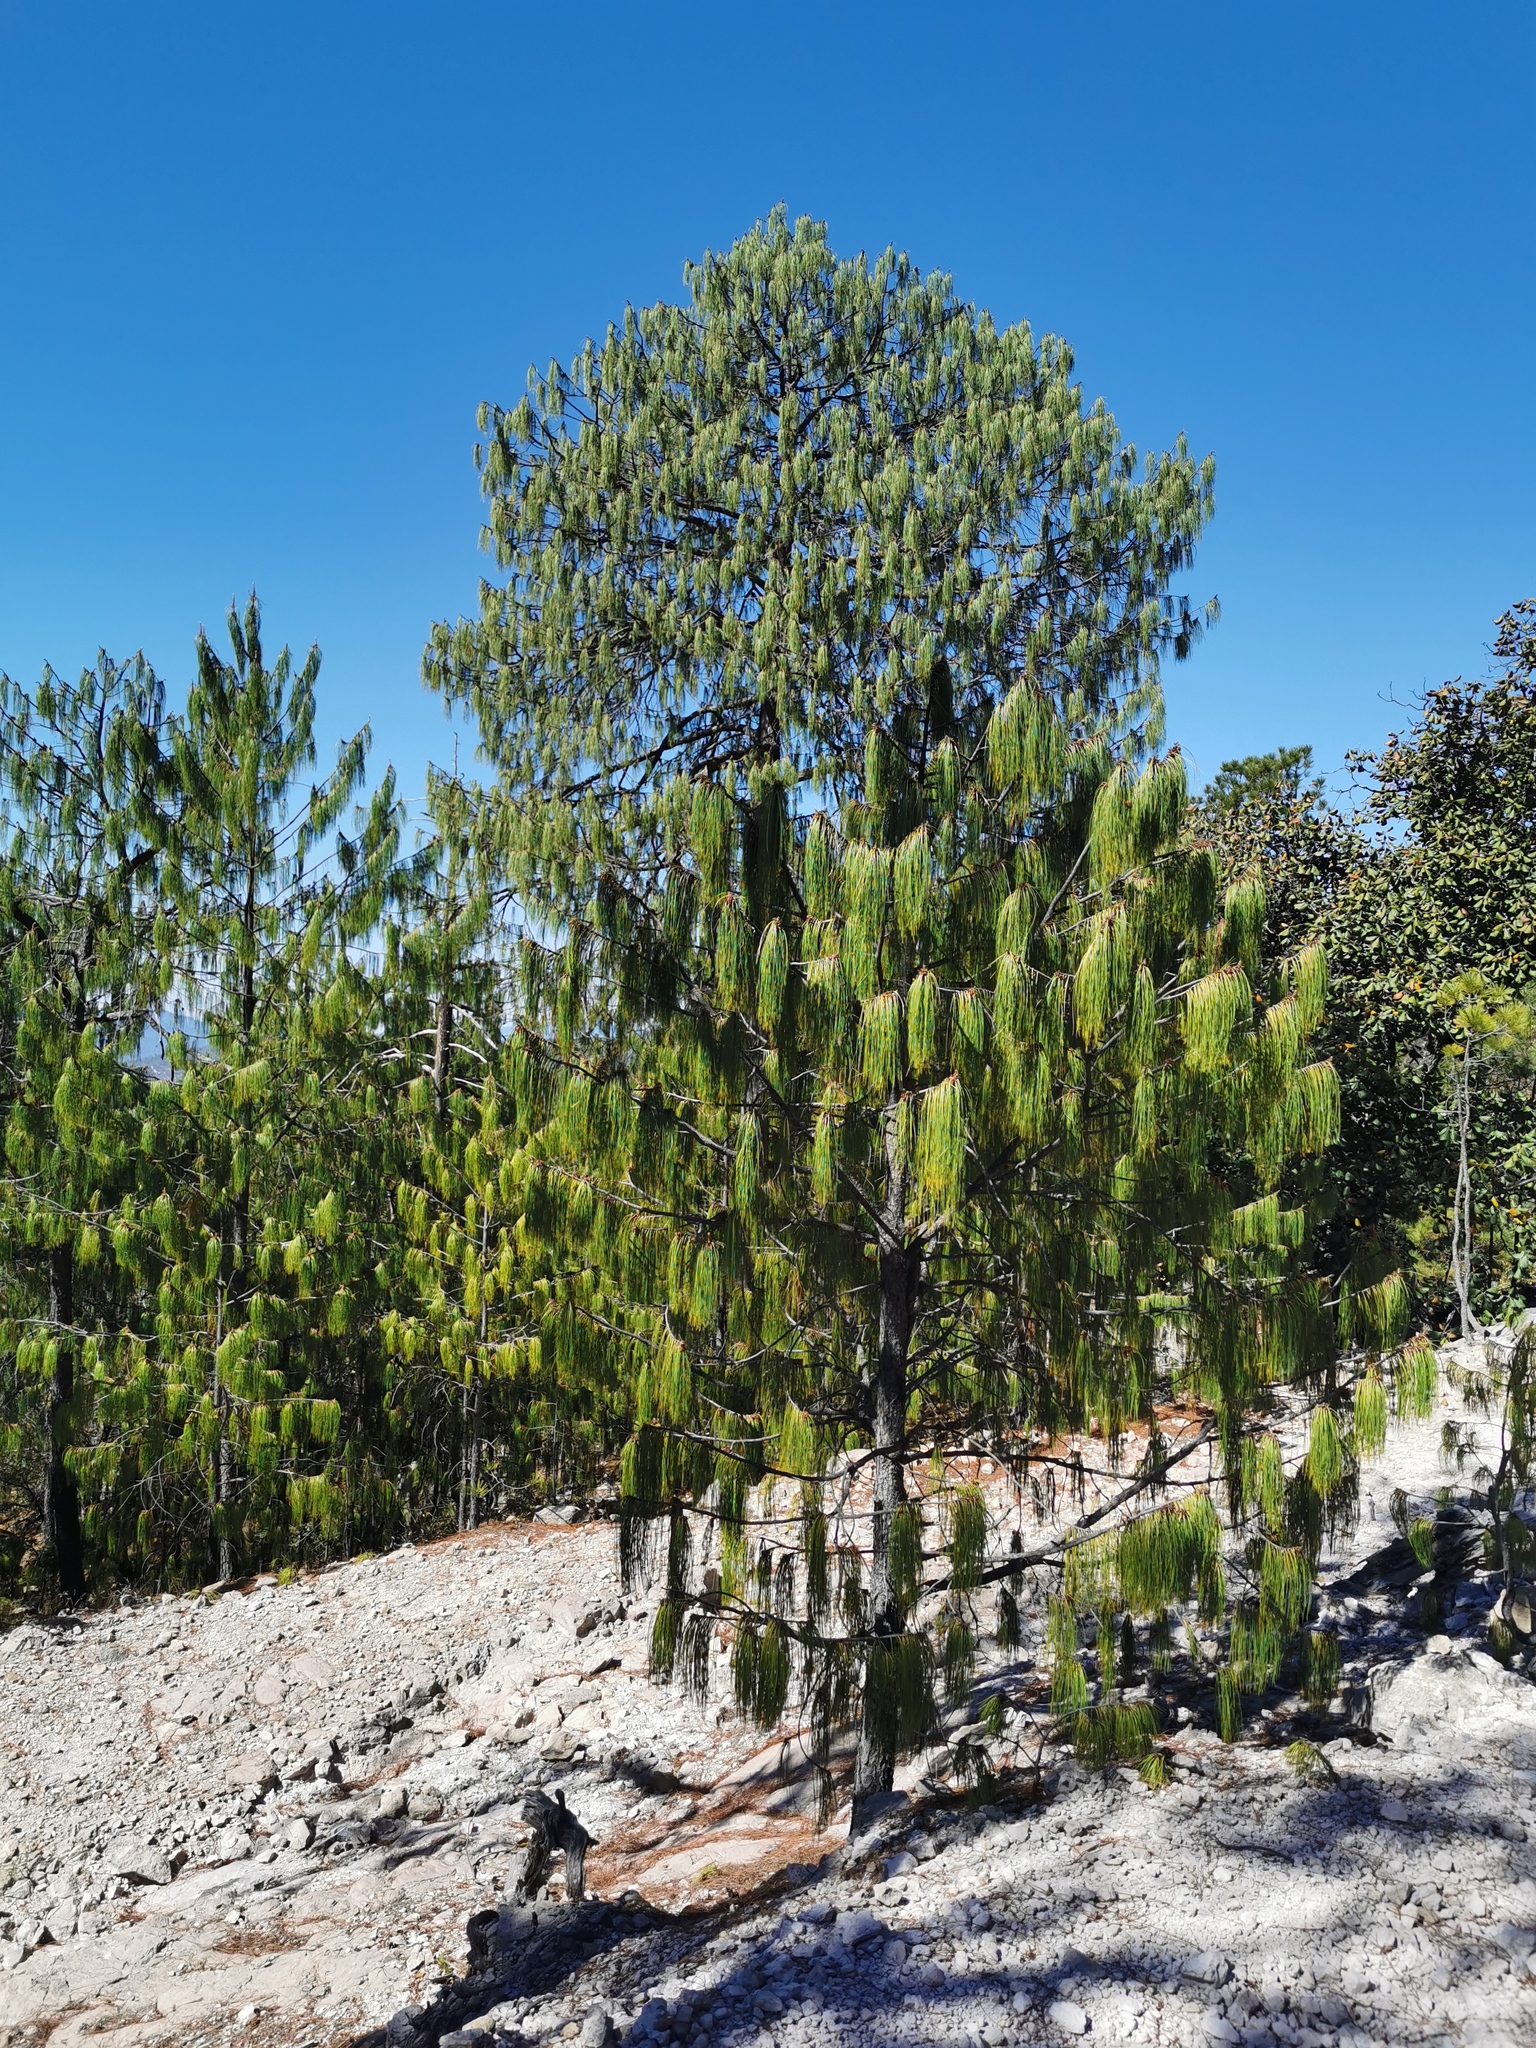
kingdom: Plantae
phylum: Tracheophyta
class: Pinopsida
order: Pinales
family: Pinaceae
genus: Pinus
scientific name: Pinus lumholtzii
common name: Lumholtz's pine
